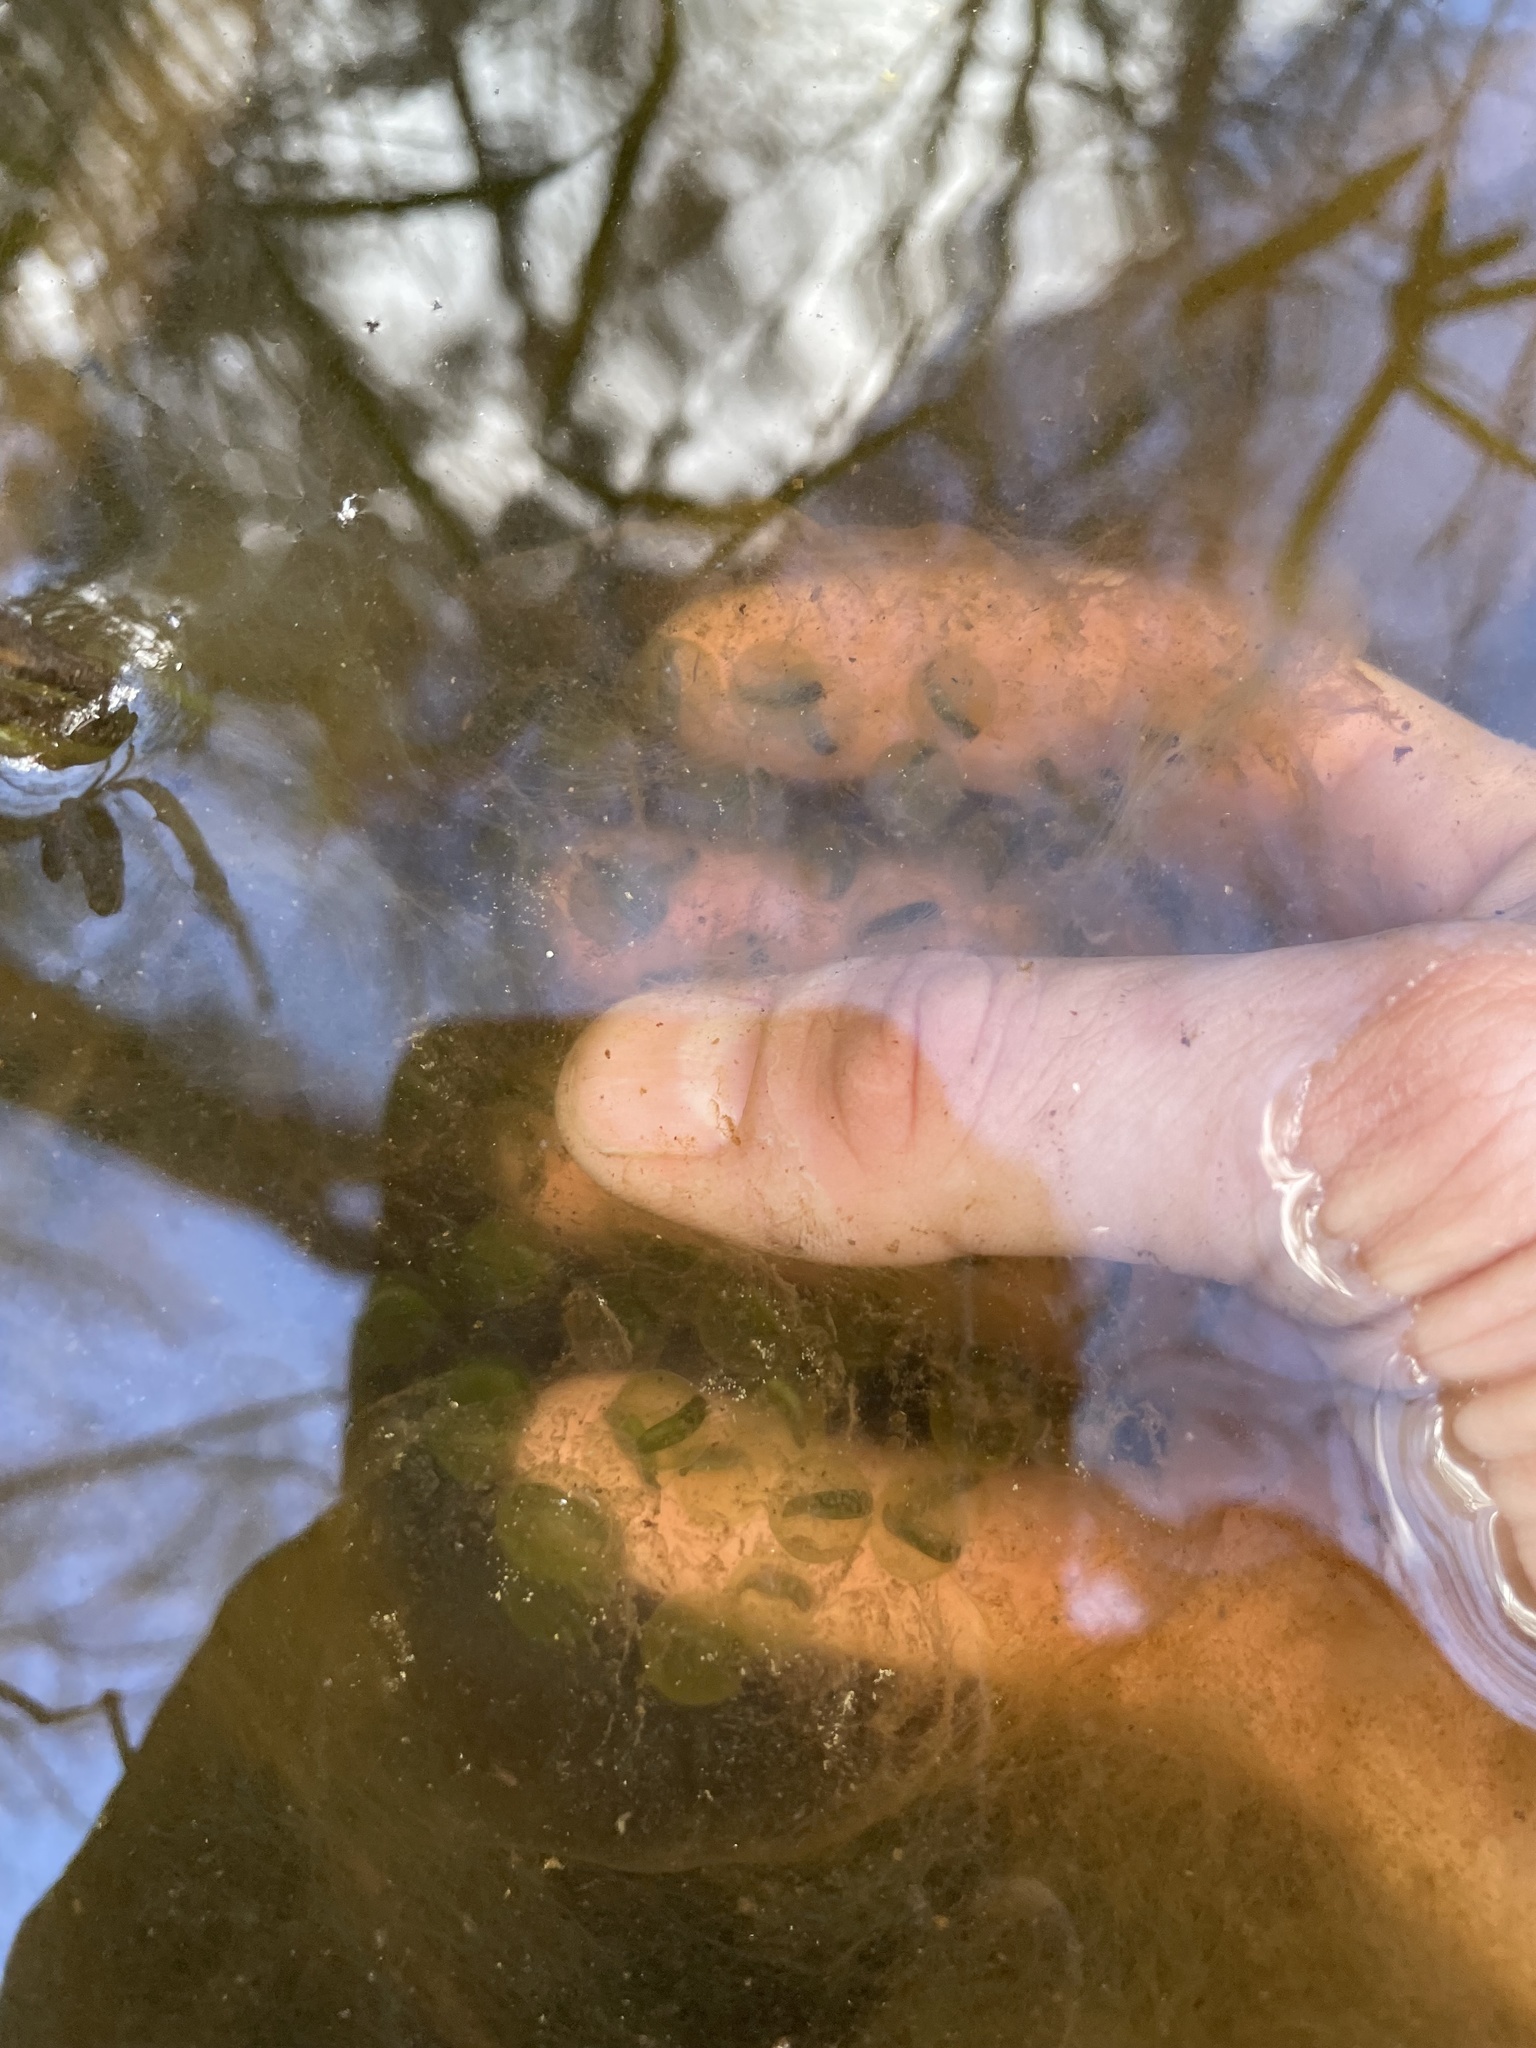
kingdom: Animalia
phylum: Chordata
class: Amphibia
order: Caudata
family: Ambystomatidae
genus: Ambystoma
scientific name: Ambystoma maculatum
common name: Spotted salamander
